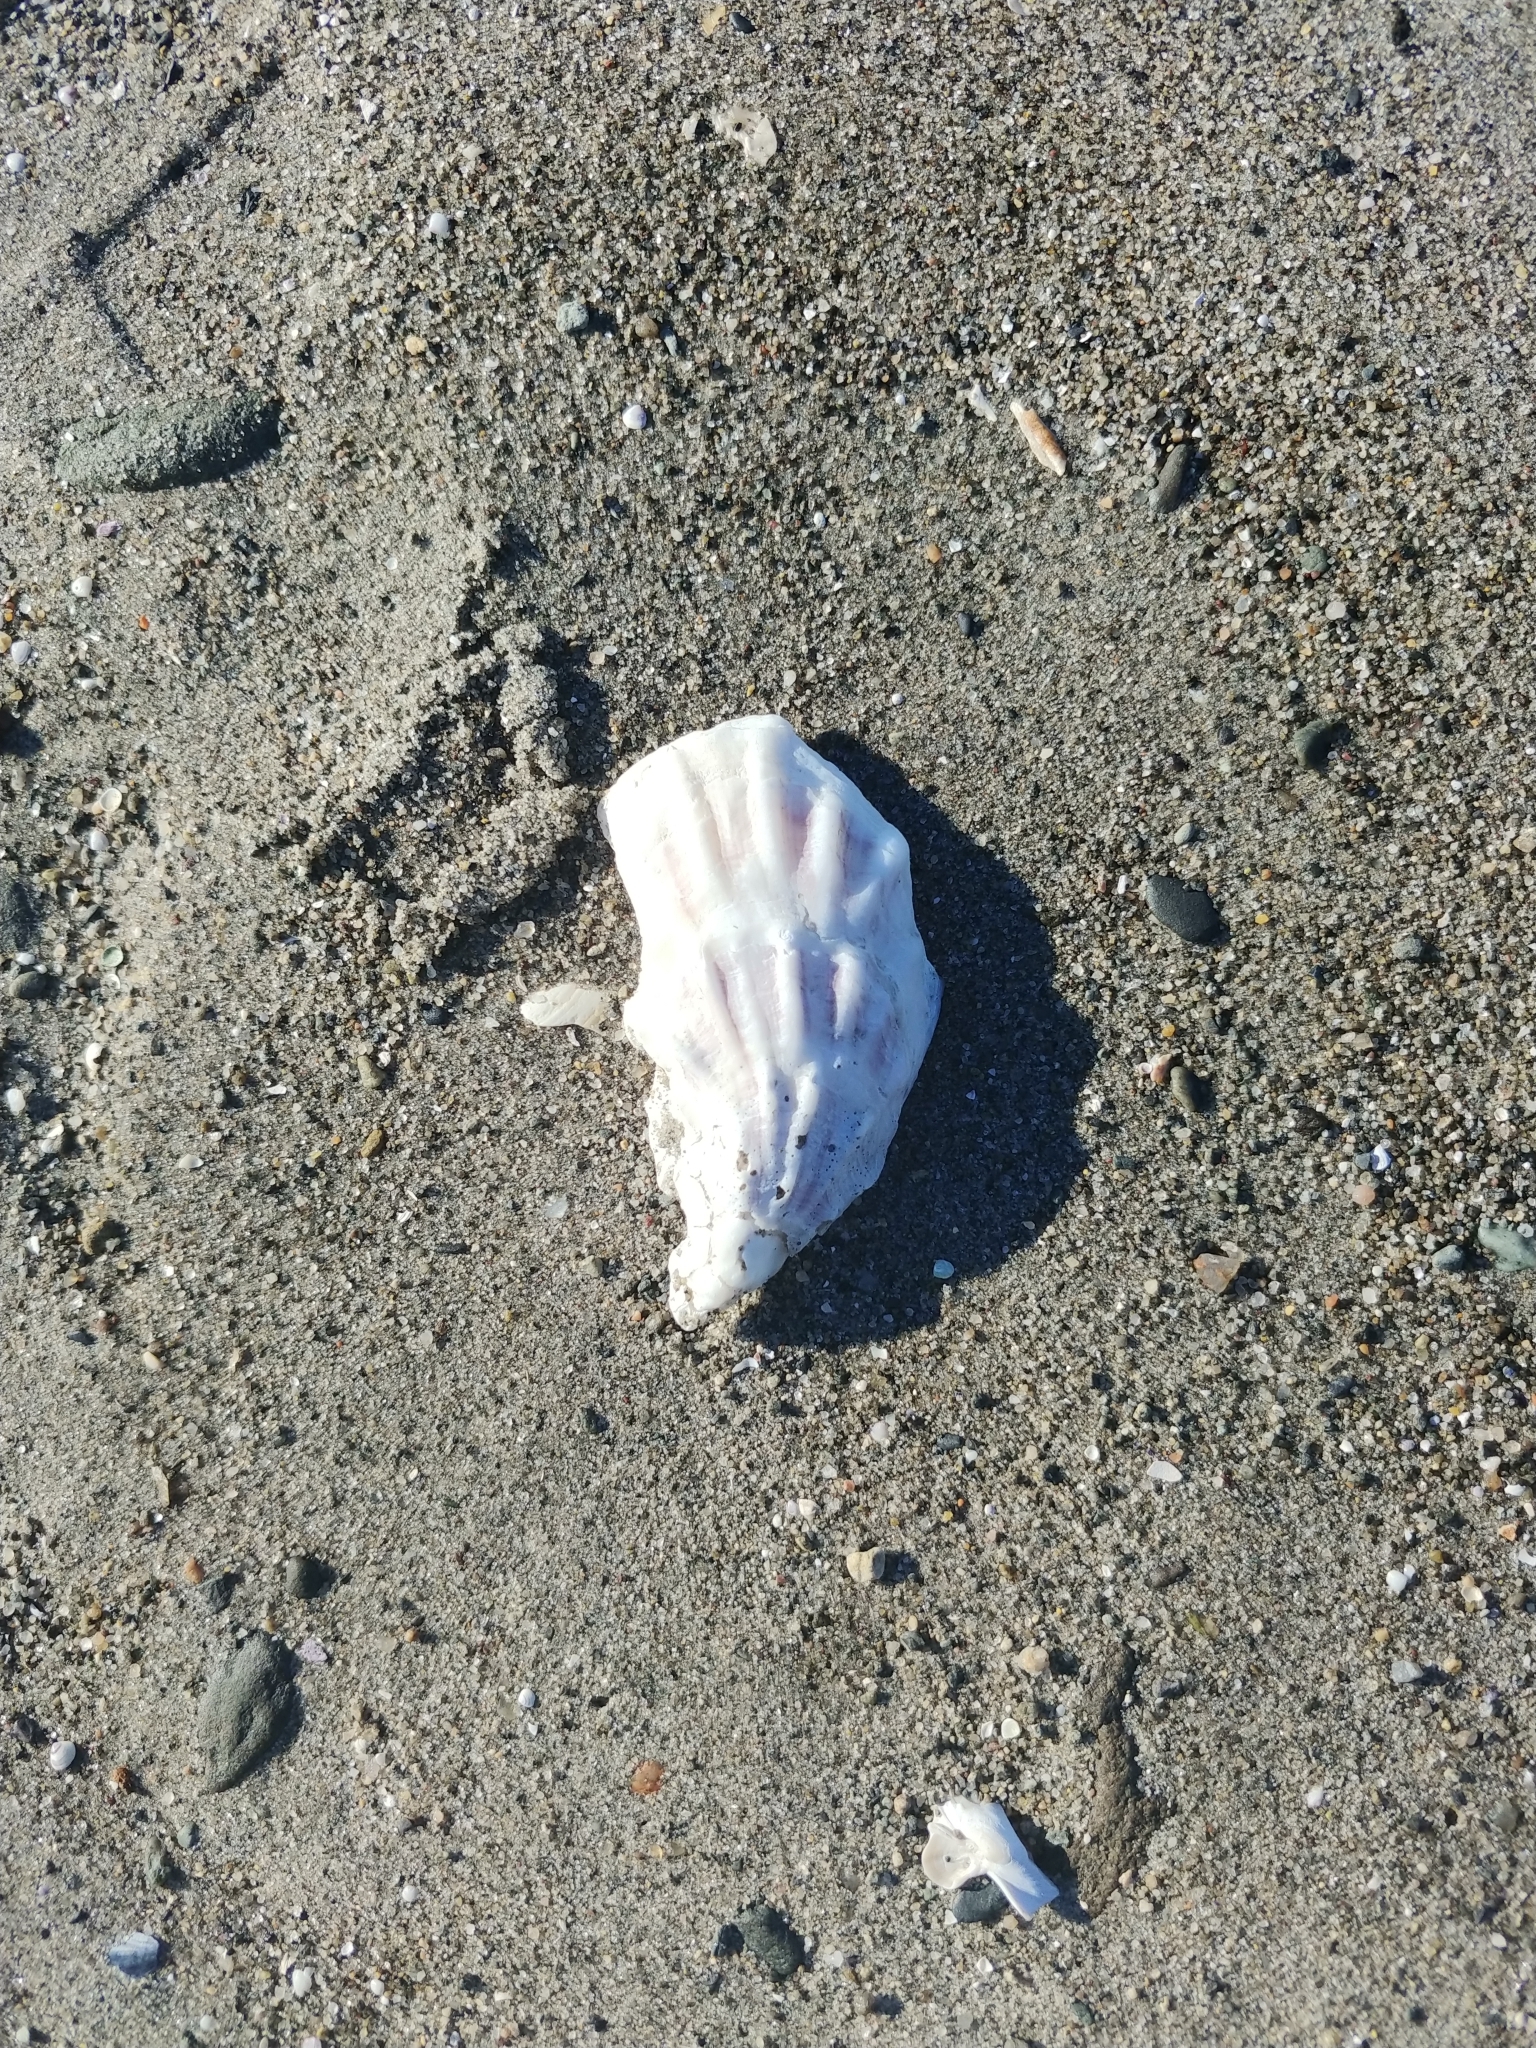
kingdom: Animalia
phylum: Mollusca
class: Bivalvia
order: Ostreida
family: Ostreidae
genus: Crassostrea
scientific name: Crassostrea virginica
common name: American oyster
